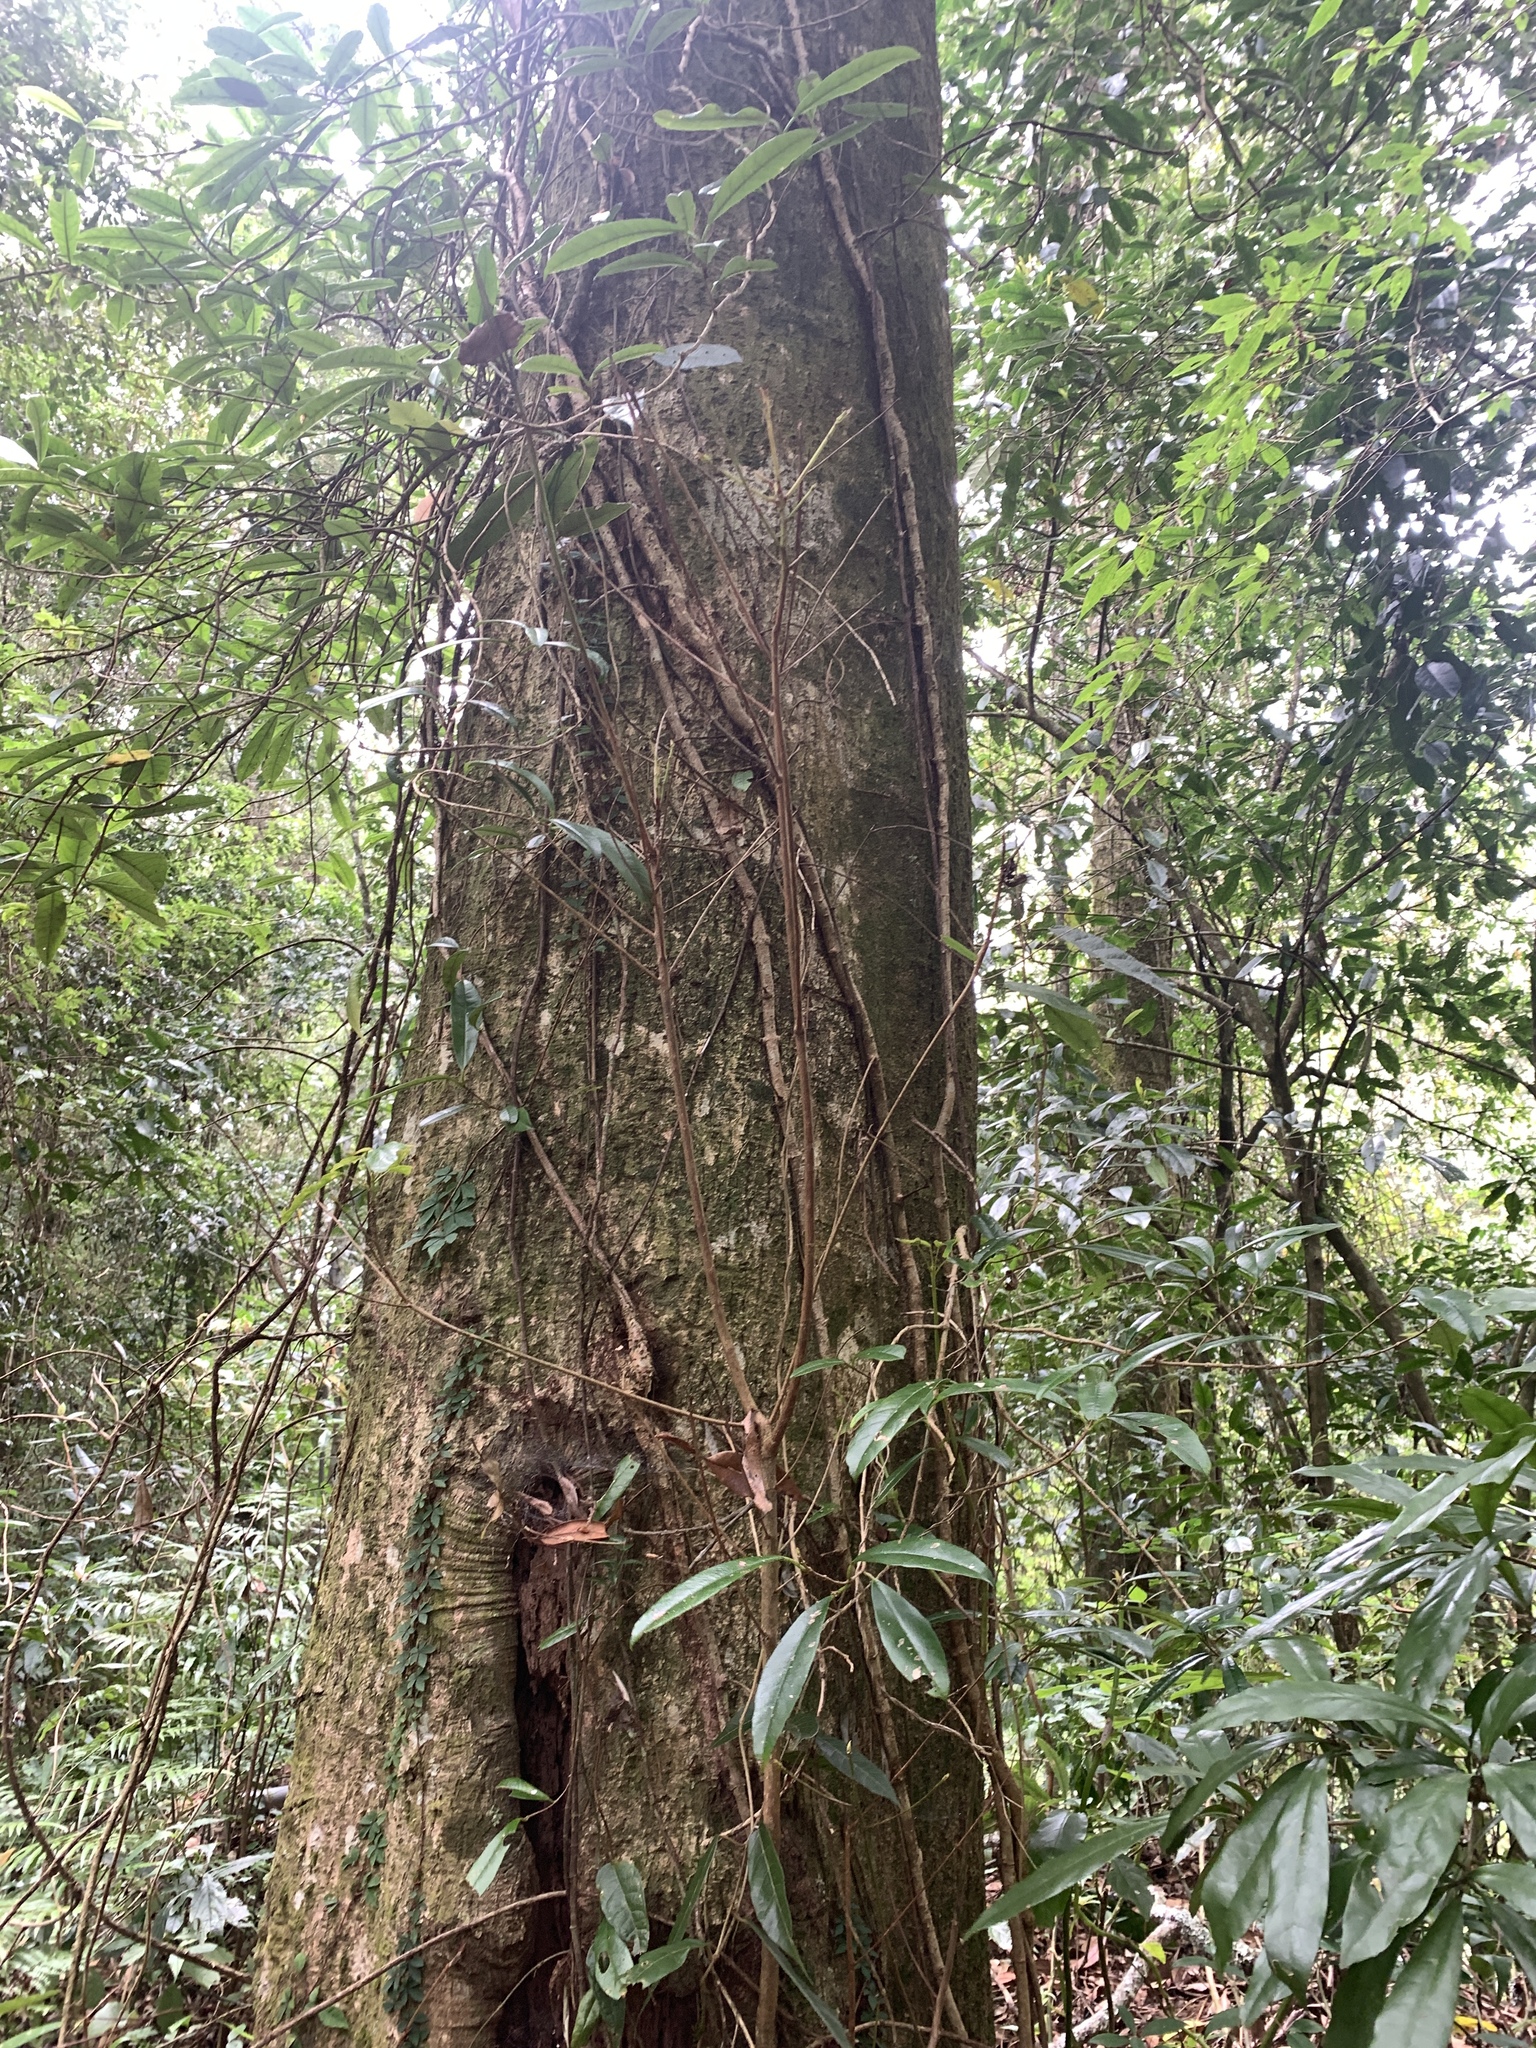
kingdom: Plantae
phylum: Tracheophyta
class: Magnoliopsida
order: Ericales
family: Theaceae
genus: Schima
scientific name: Schima superba
